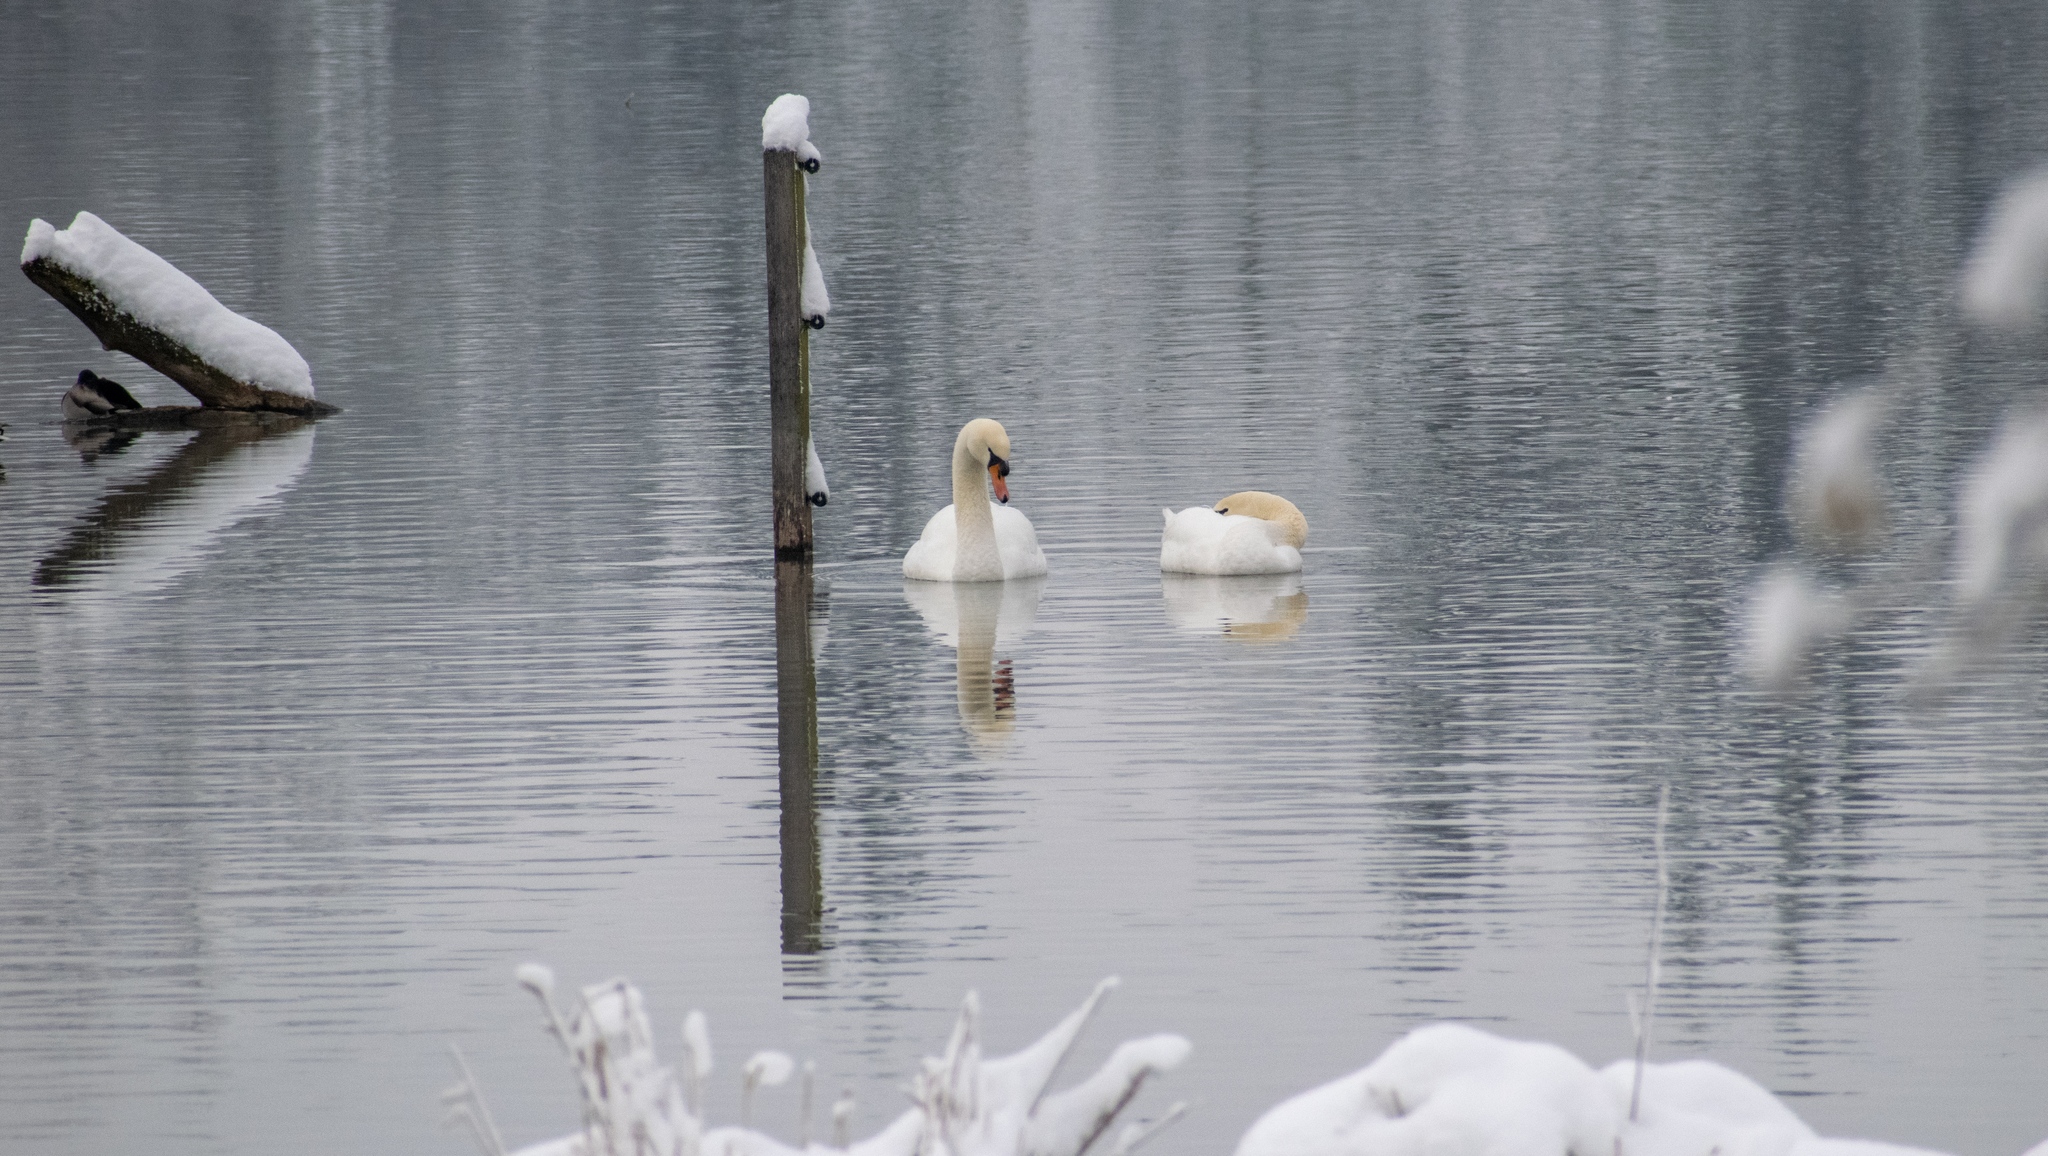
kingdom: Animalia
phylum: Chordata
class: Aves
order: Anseriformes
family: Anatidae
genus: Cygnus
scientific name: Cygnus olor
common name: Mute swan
